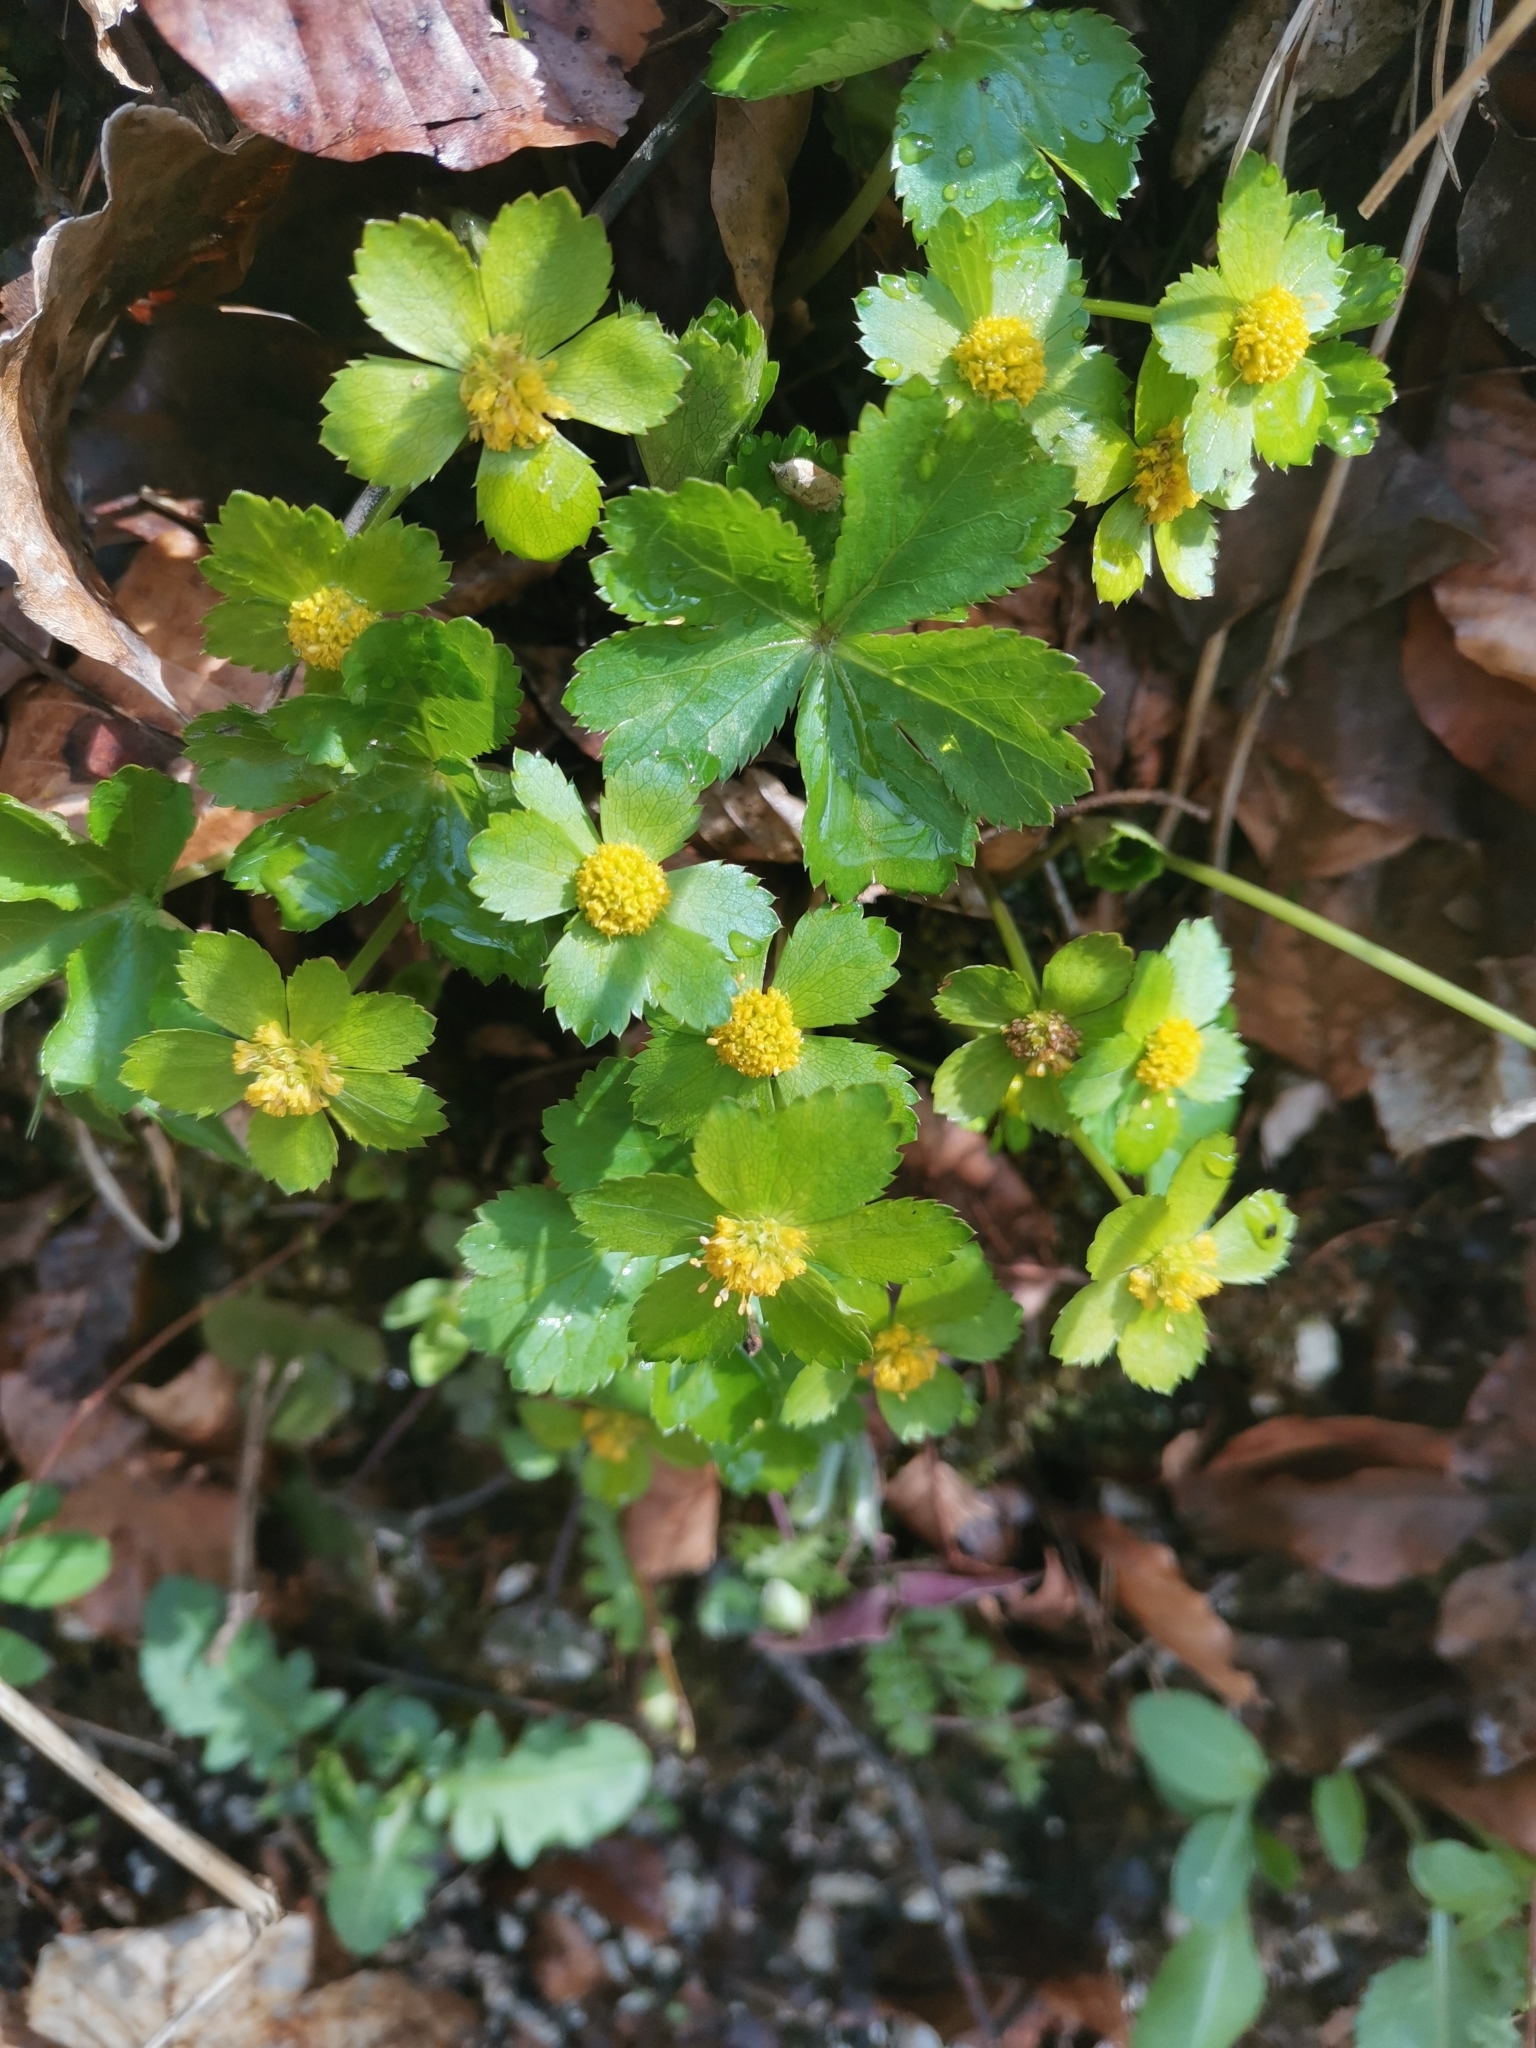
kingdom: Plantae
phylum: Tracheophyta
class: Magnoliopsida
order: Apiales
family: Apiaceae
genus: Sanicula
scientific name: Sanicula epipactis
